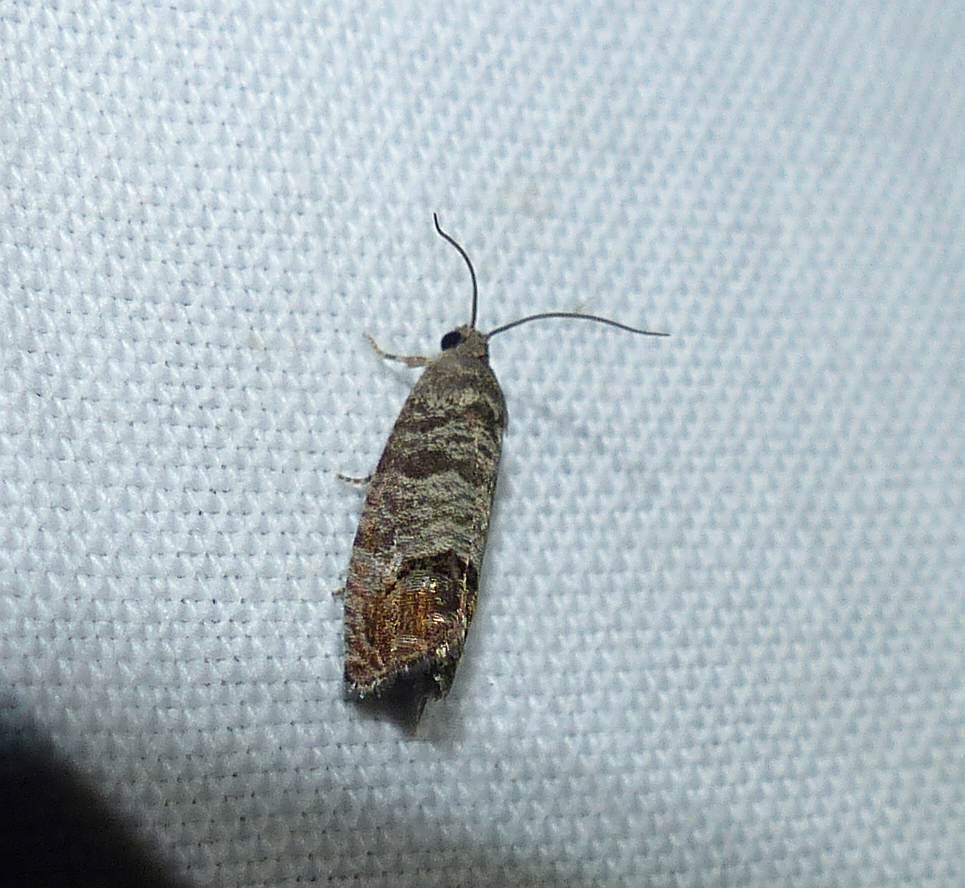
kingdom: Animalia
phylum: Arthropoda
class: Insecta
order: Lepidoptera
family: Tortricidae
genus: Cydia
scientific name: Cydia pomonella
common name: Codling moth
